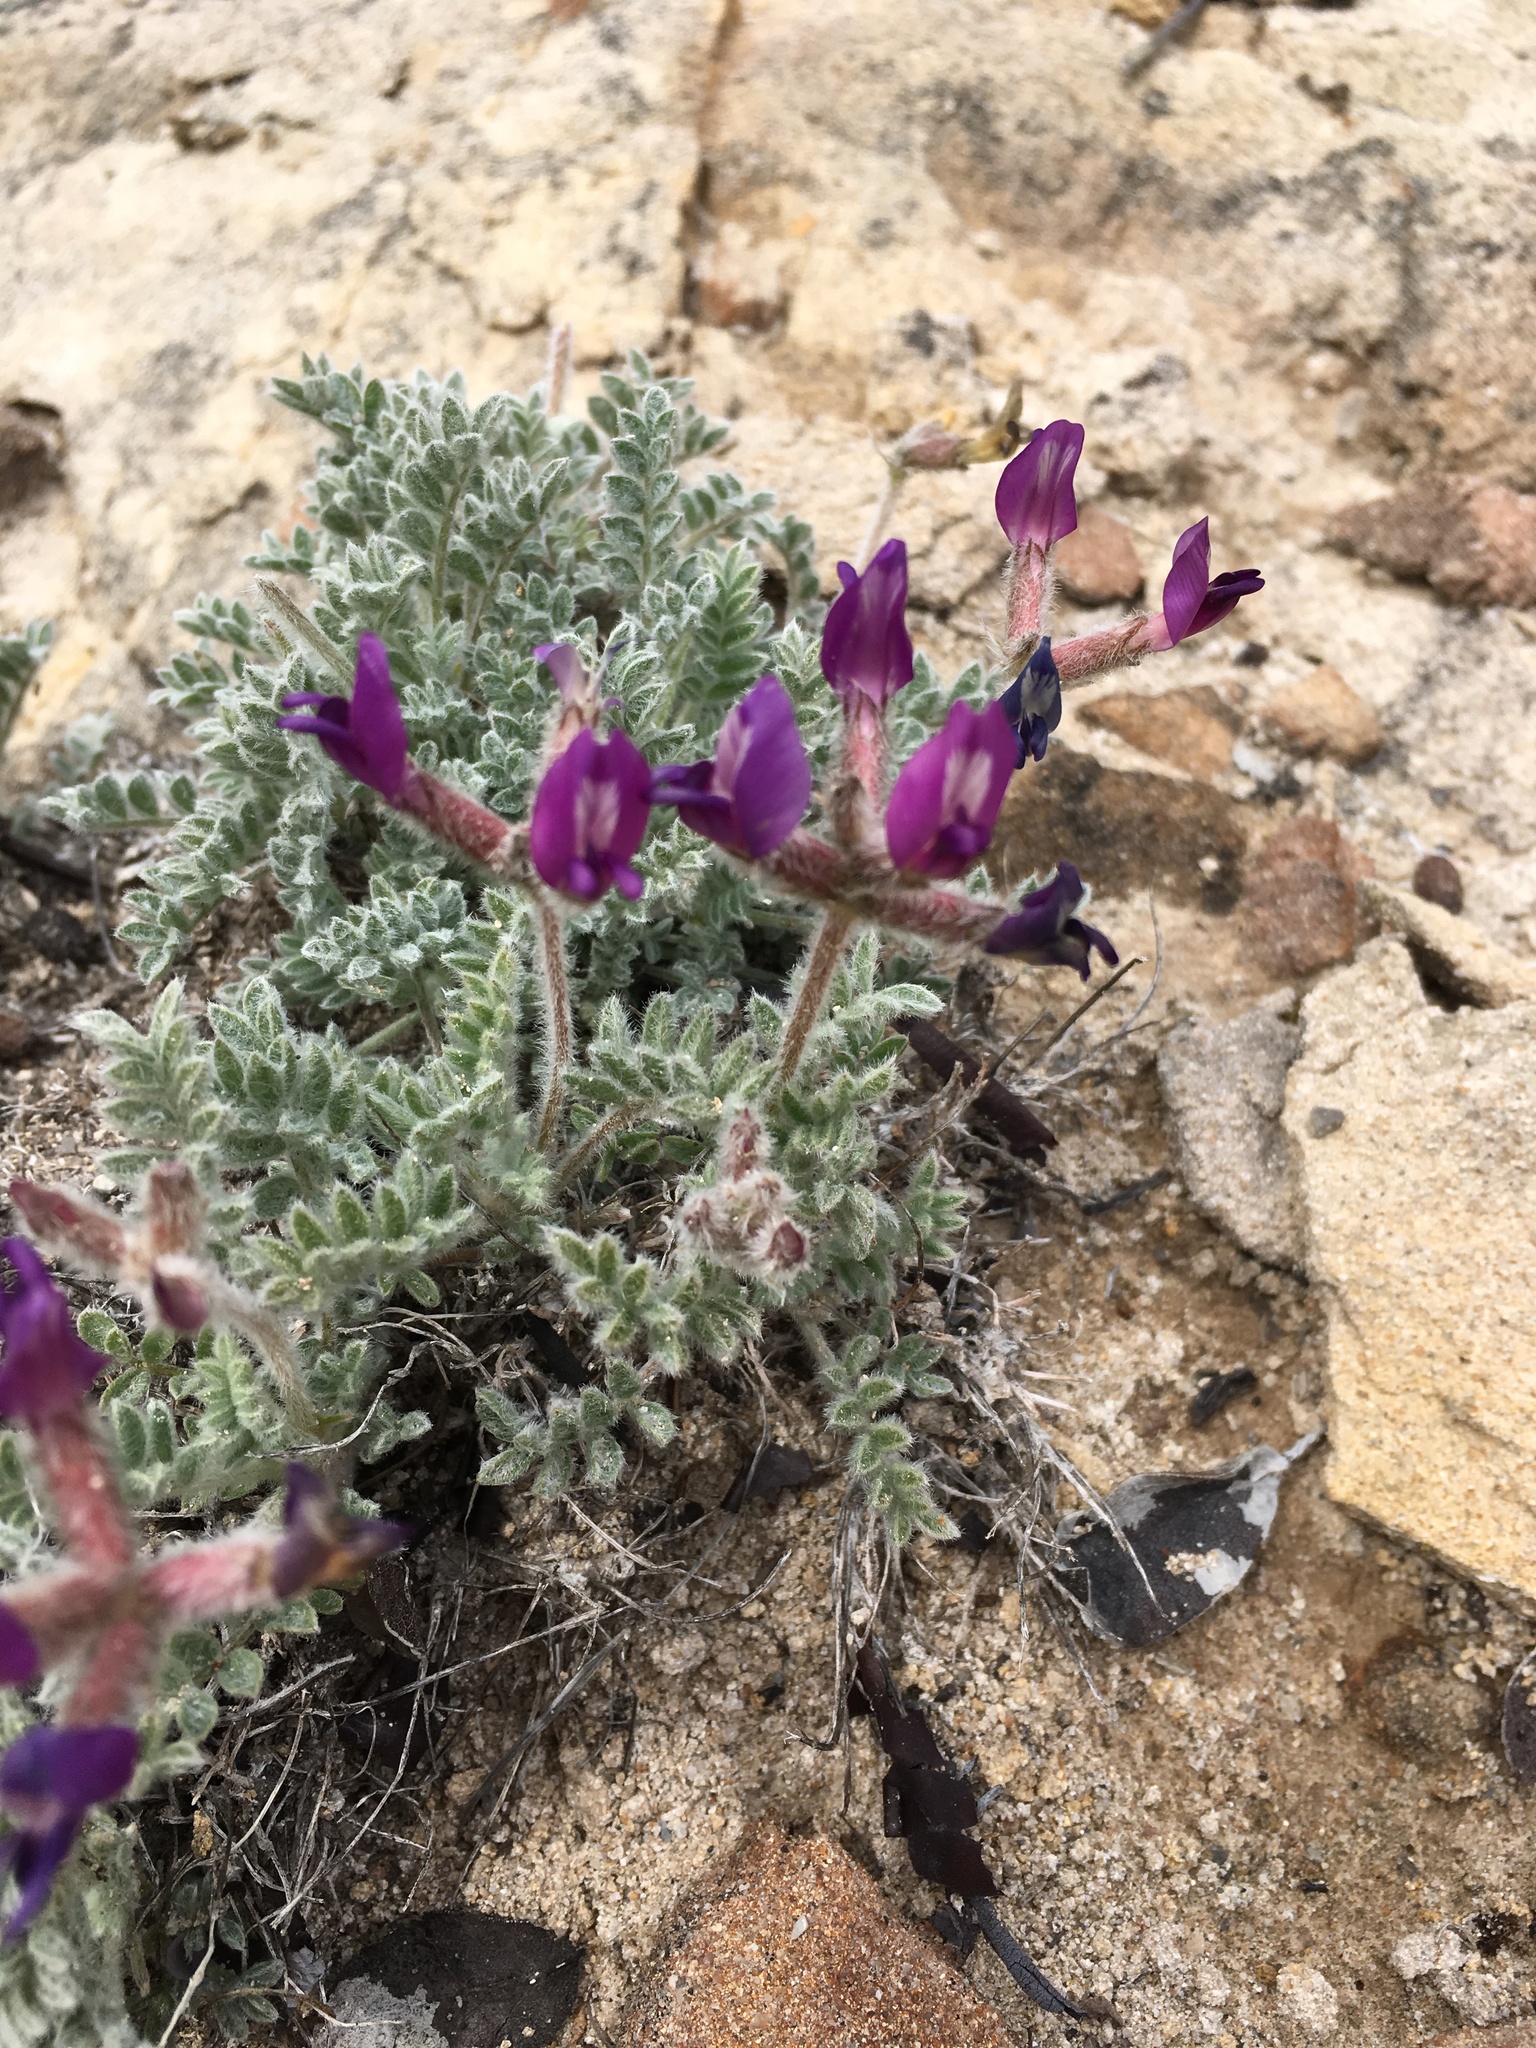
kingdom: Plantae
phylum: Tracheophyta
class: Magnoliopsida
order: Fabales
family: Fabaceae
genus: Astragalus
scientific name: Astragalus purshii
